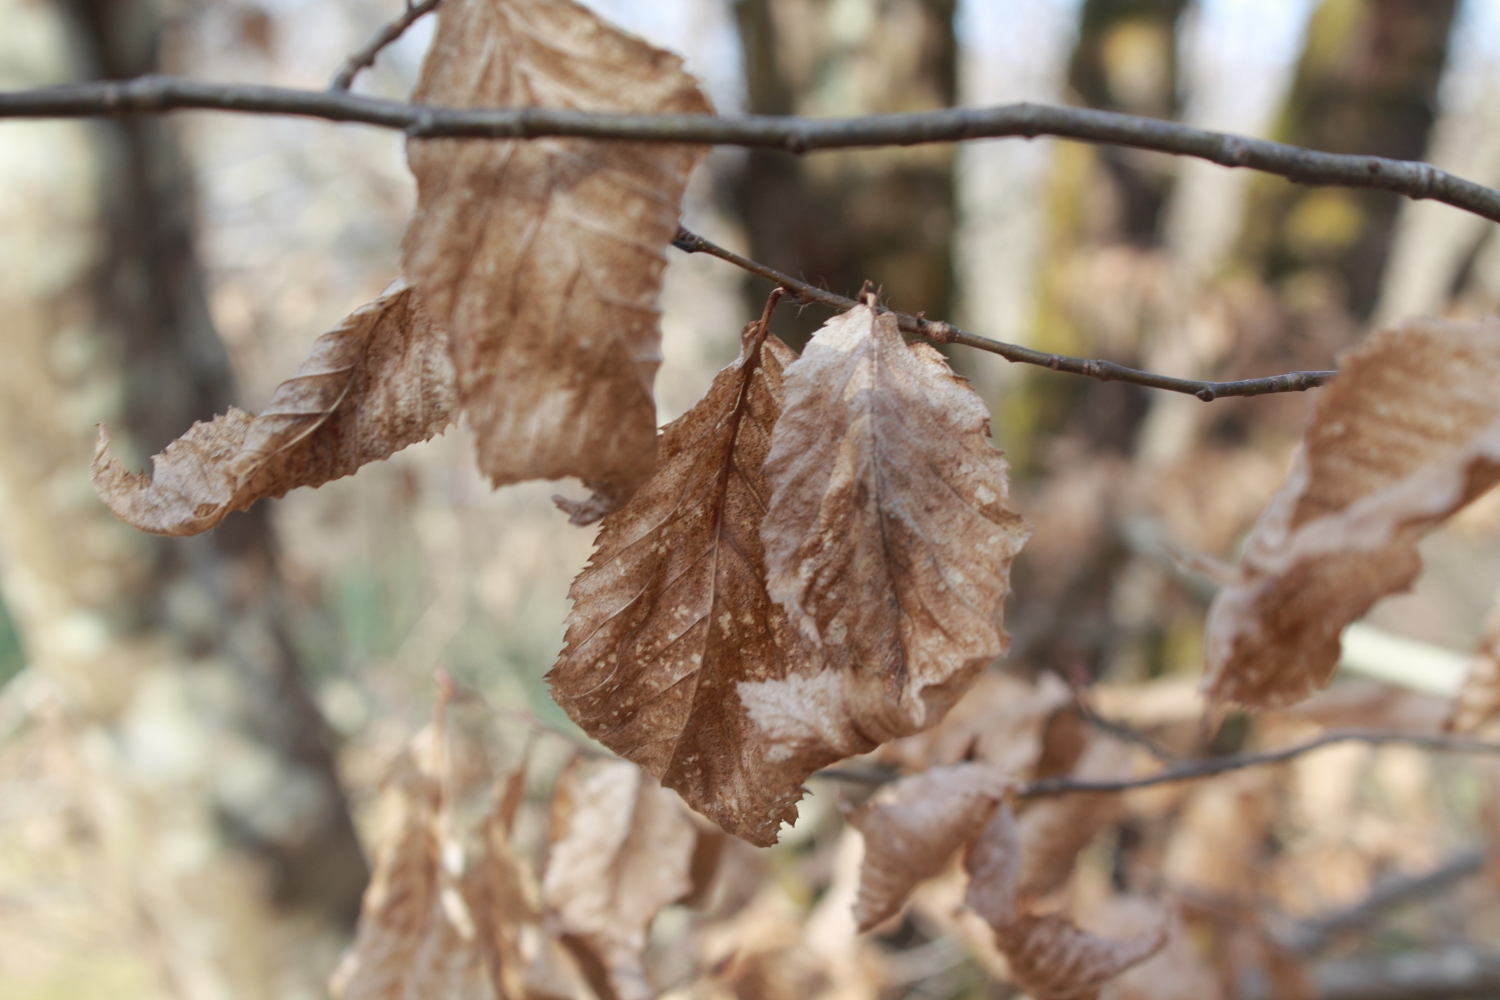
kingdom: Plantae
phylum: Tracheophyta
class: Magnoliopsida
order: Fagales
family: Betulaceae
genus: Carpinus
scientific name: Carpinus betulus
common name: Hornbeam
